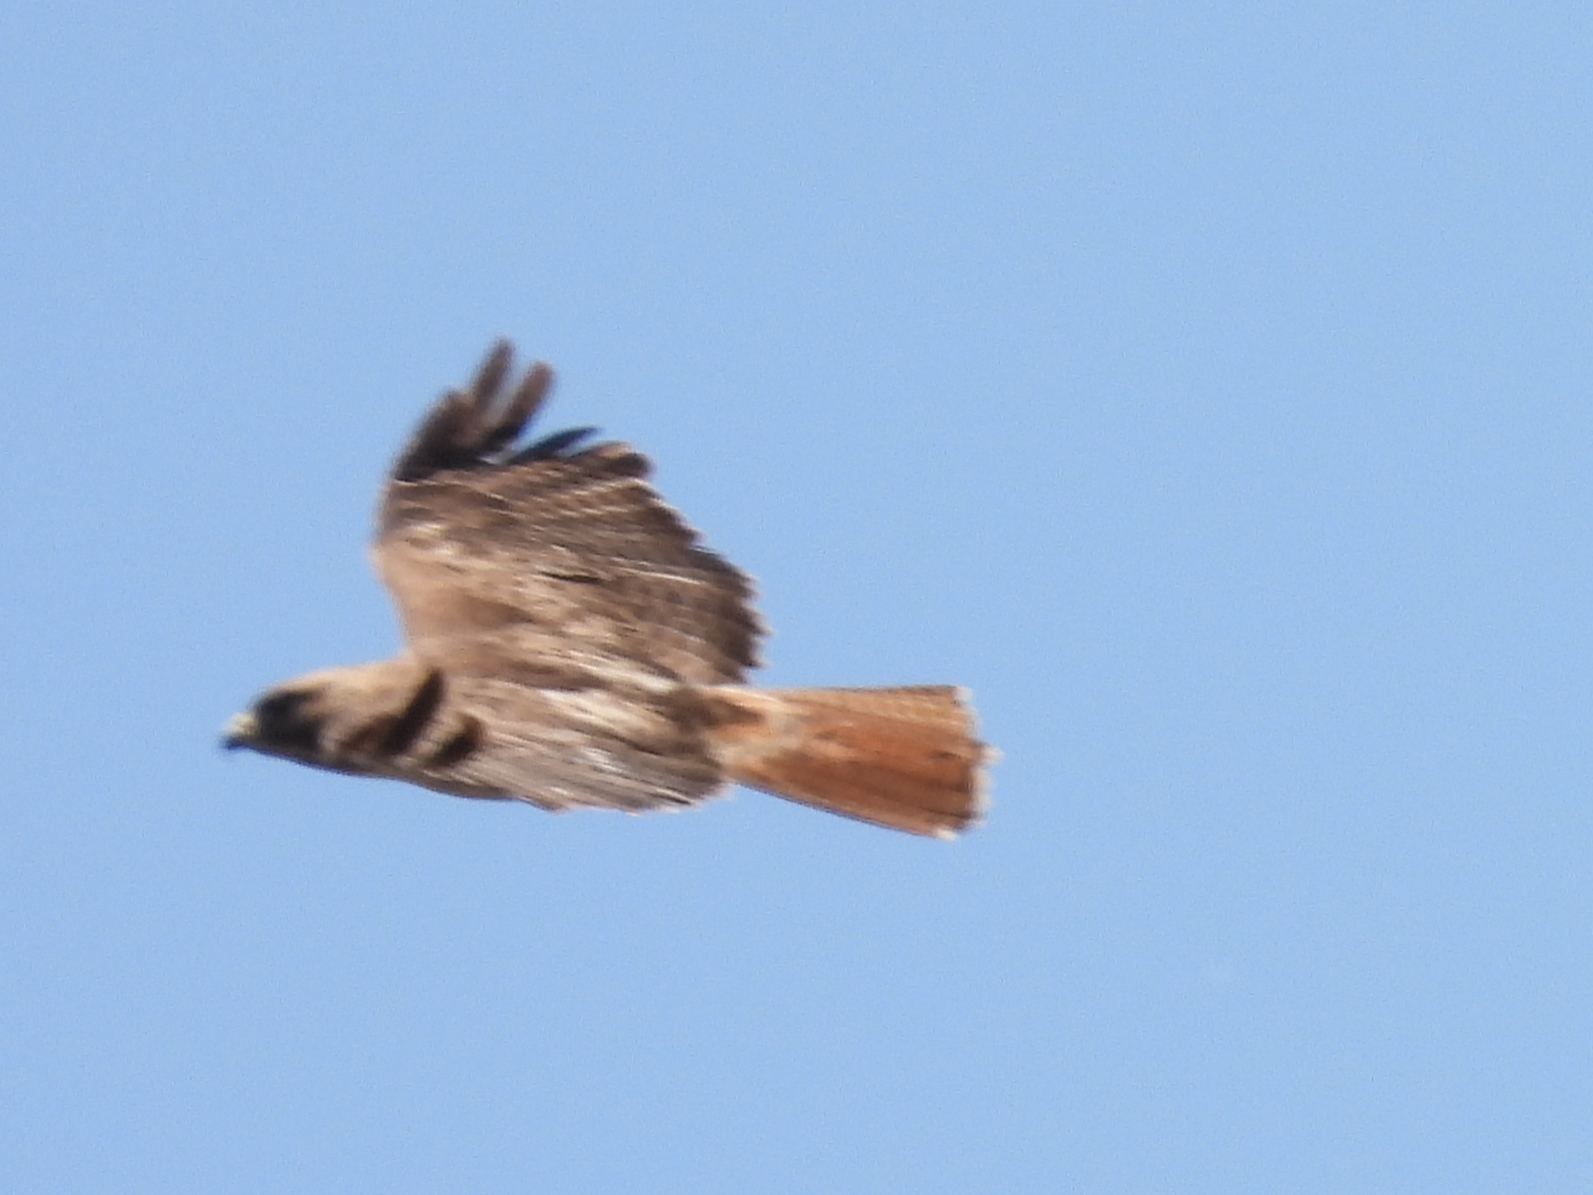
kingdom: Animalia
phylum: Chordata
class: Aves
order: Accipitriformes
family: Accipitridae
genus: Buteo
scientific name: Buteo jamaicensis
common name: Red-tailed hawk
